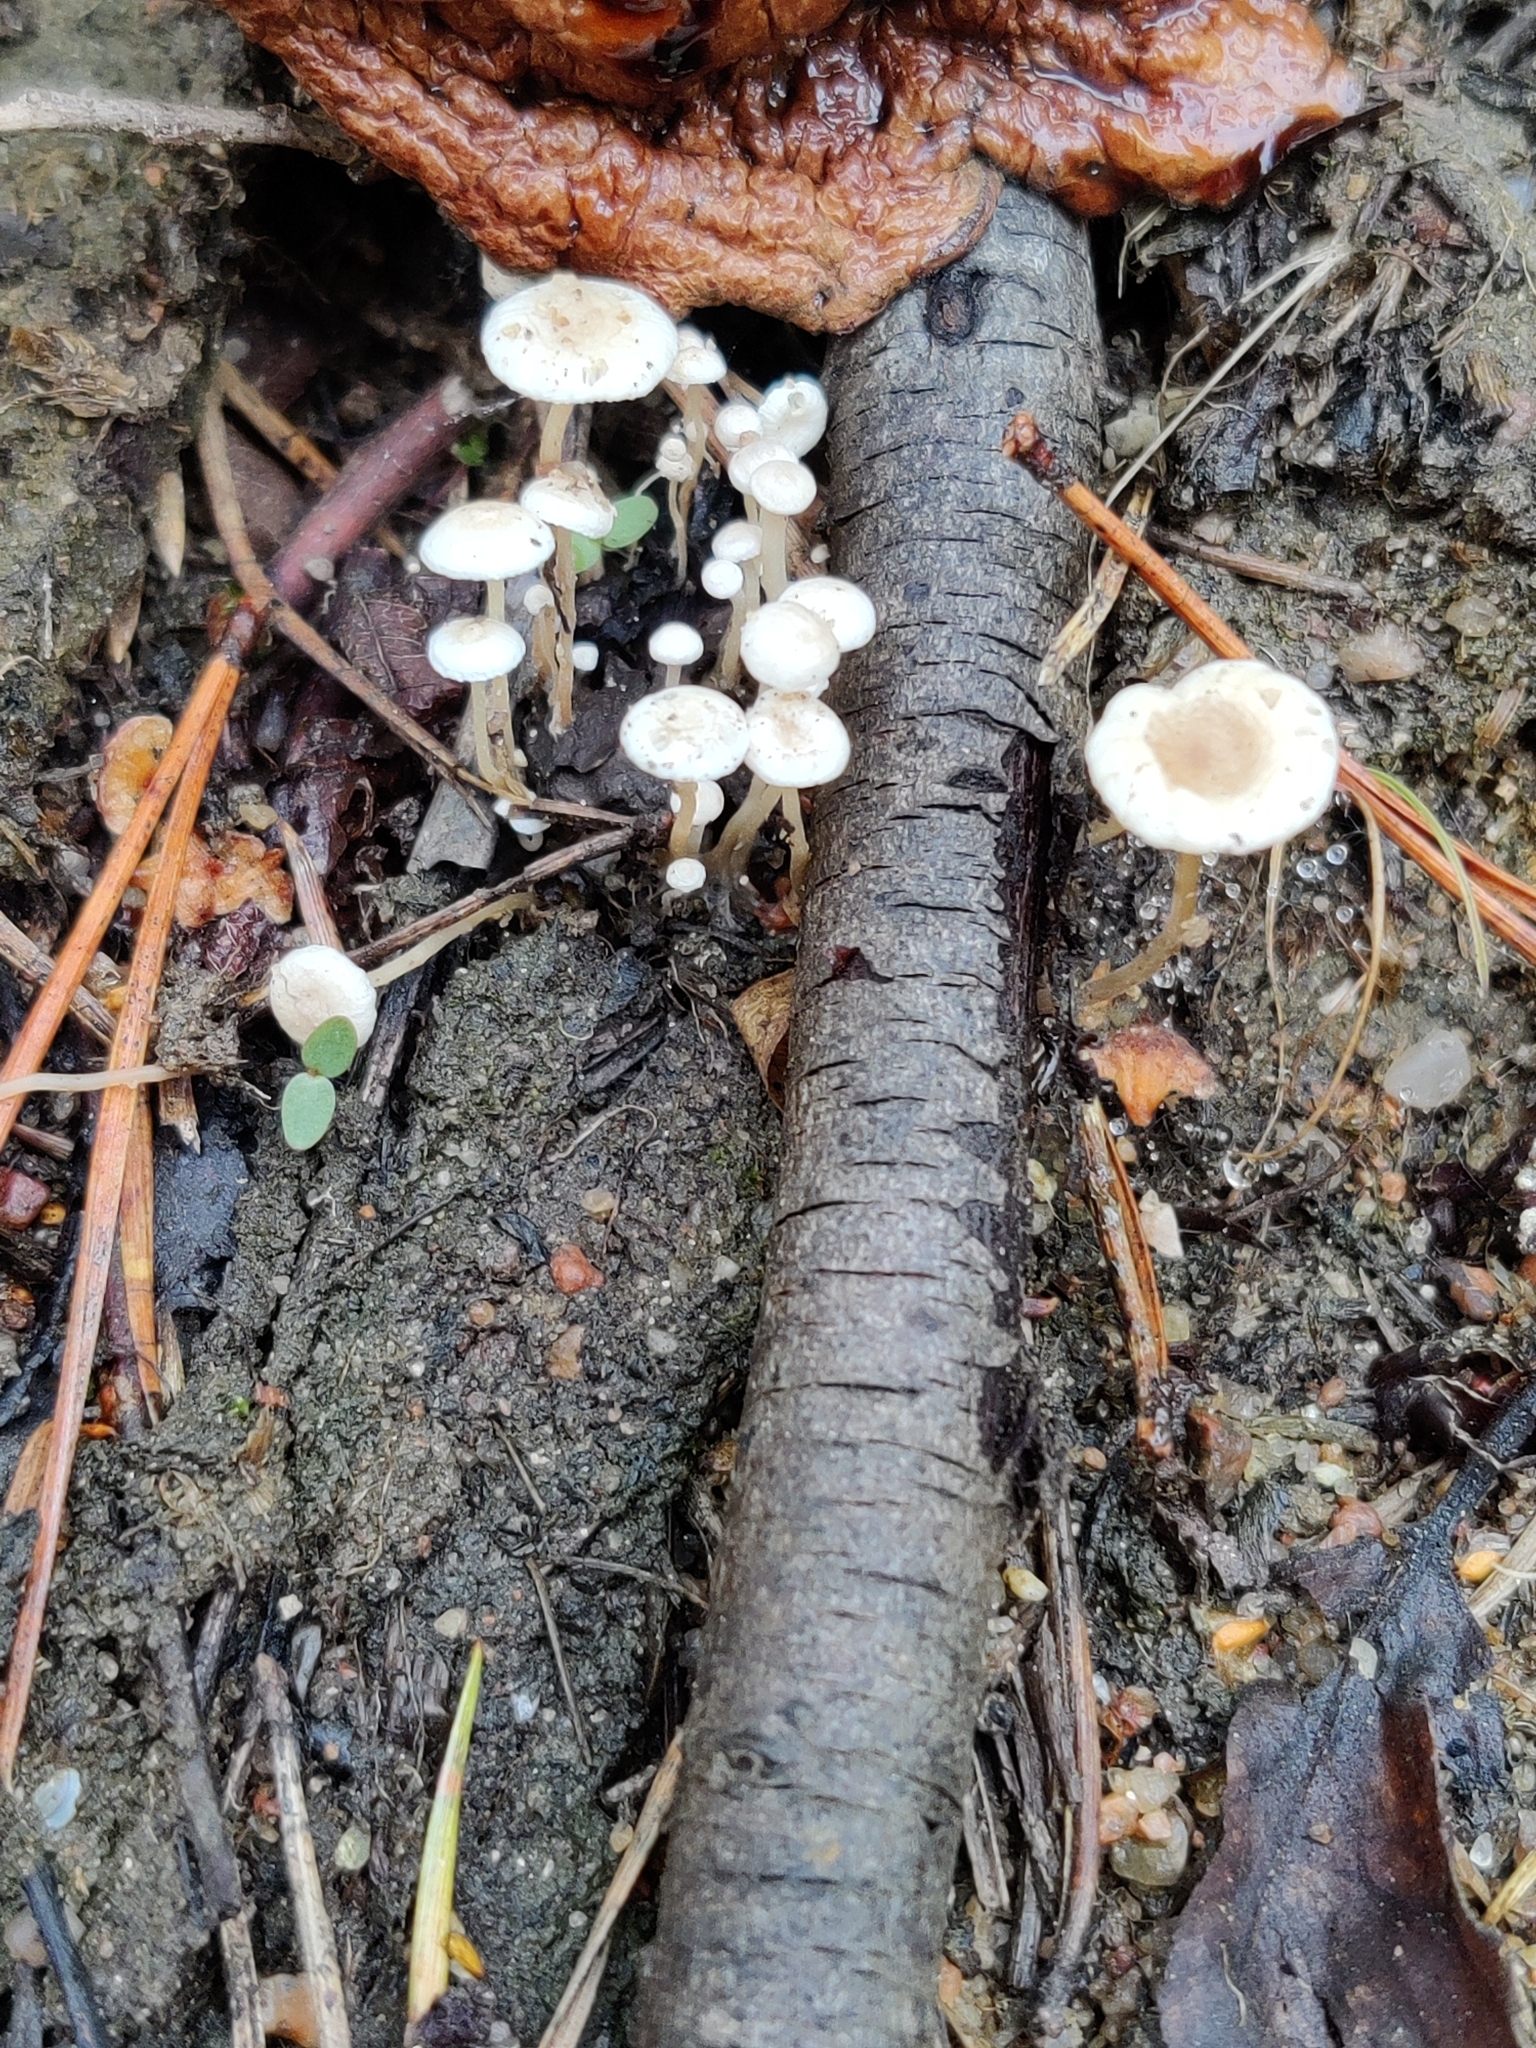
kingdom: Fungi
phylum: Basidiomycota
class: Agaricomycetes
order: Agaricales
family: Tricholomataceae
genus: Collybia
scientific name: Collybia cirrhata
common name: Piggyback shanklet
